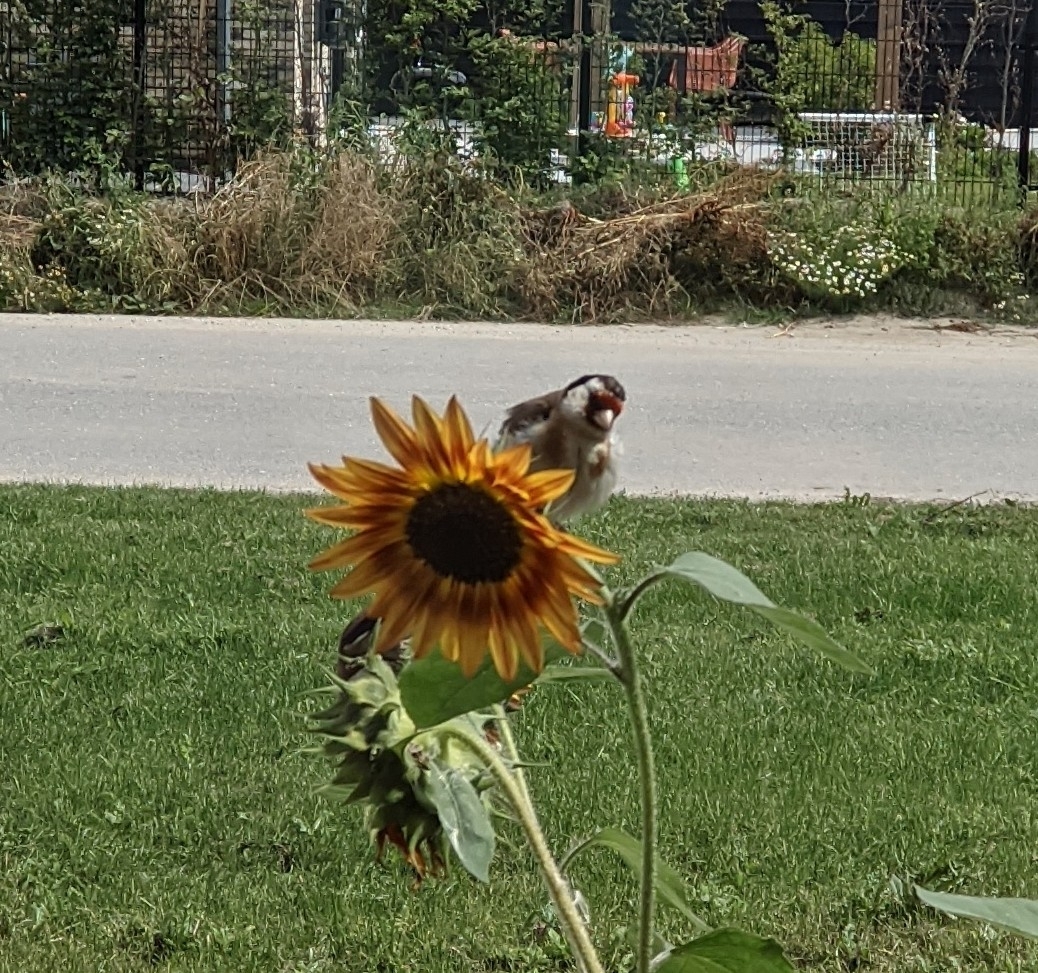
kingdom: Animalia
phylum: Chordata
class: Aves
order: Passeriformes
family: Fringillidae
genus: Carduelis
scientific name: Carduelis carduelis
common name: European goldfinch
